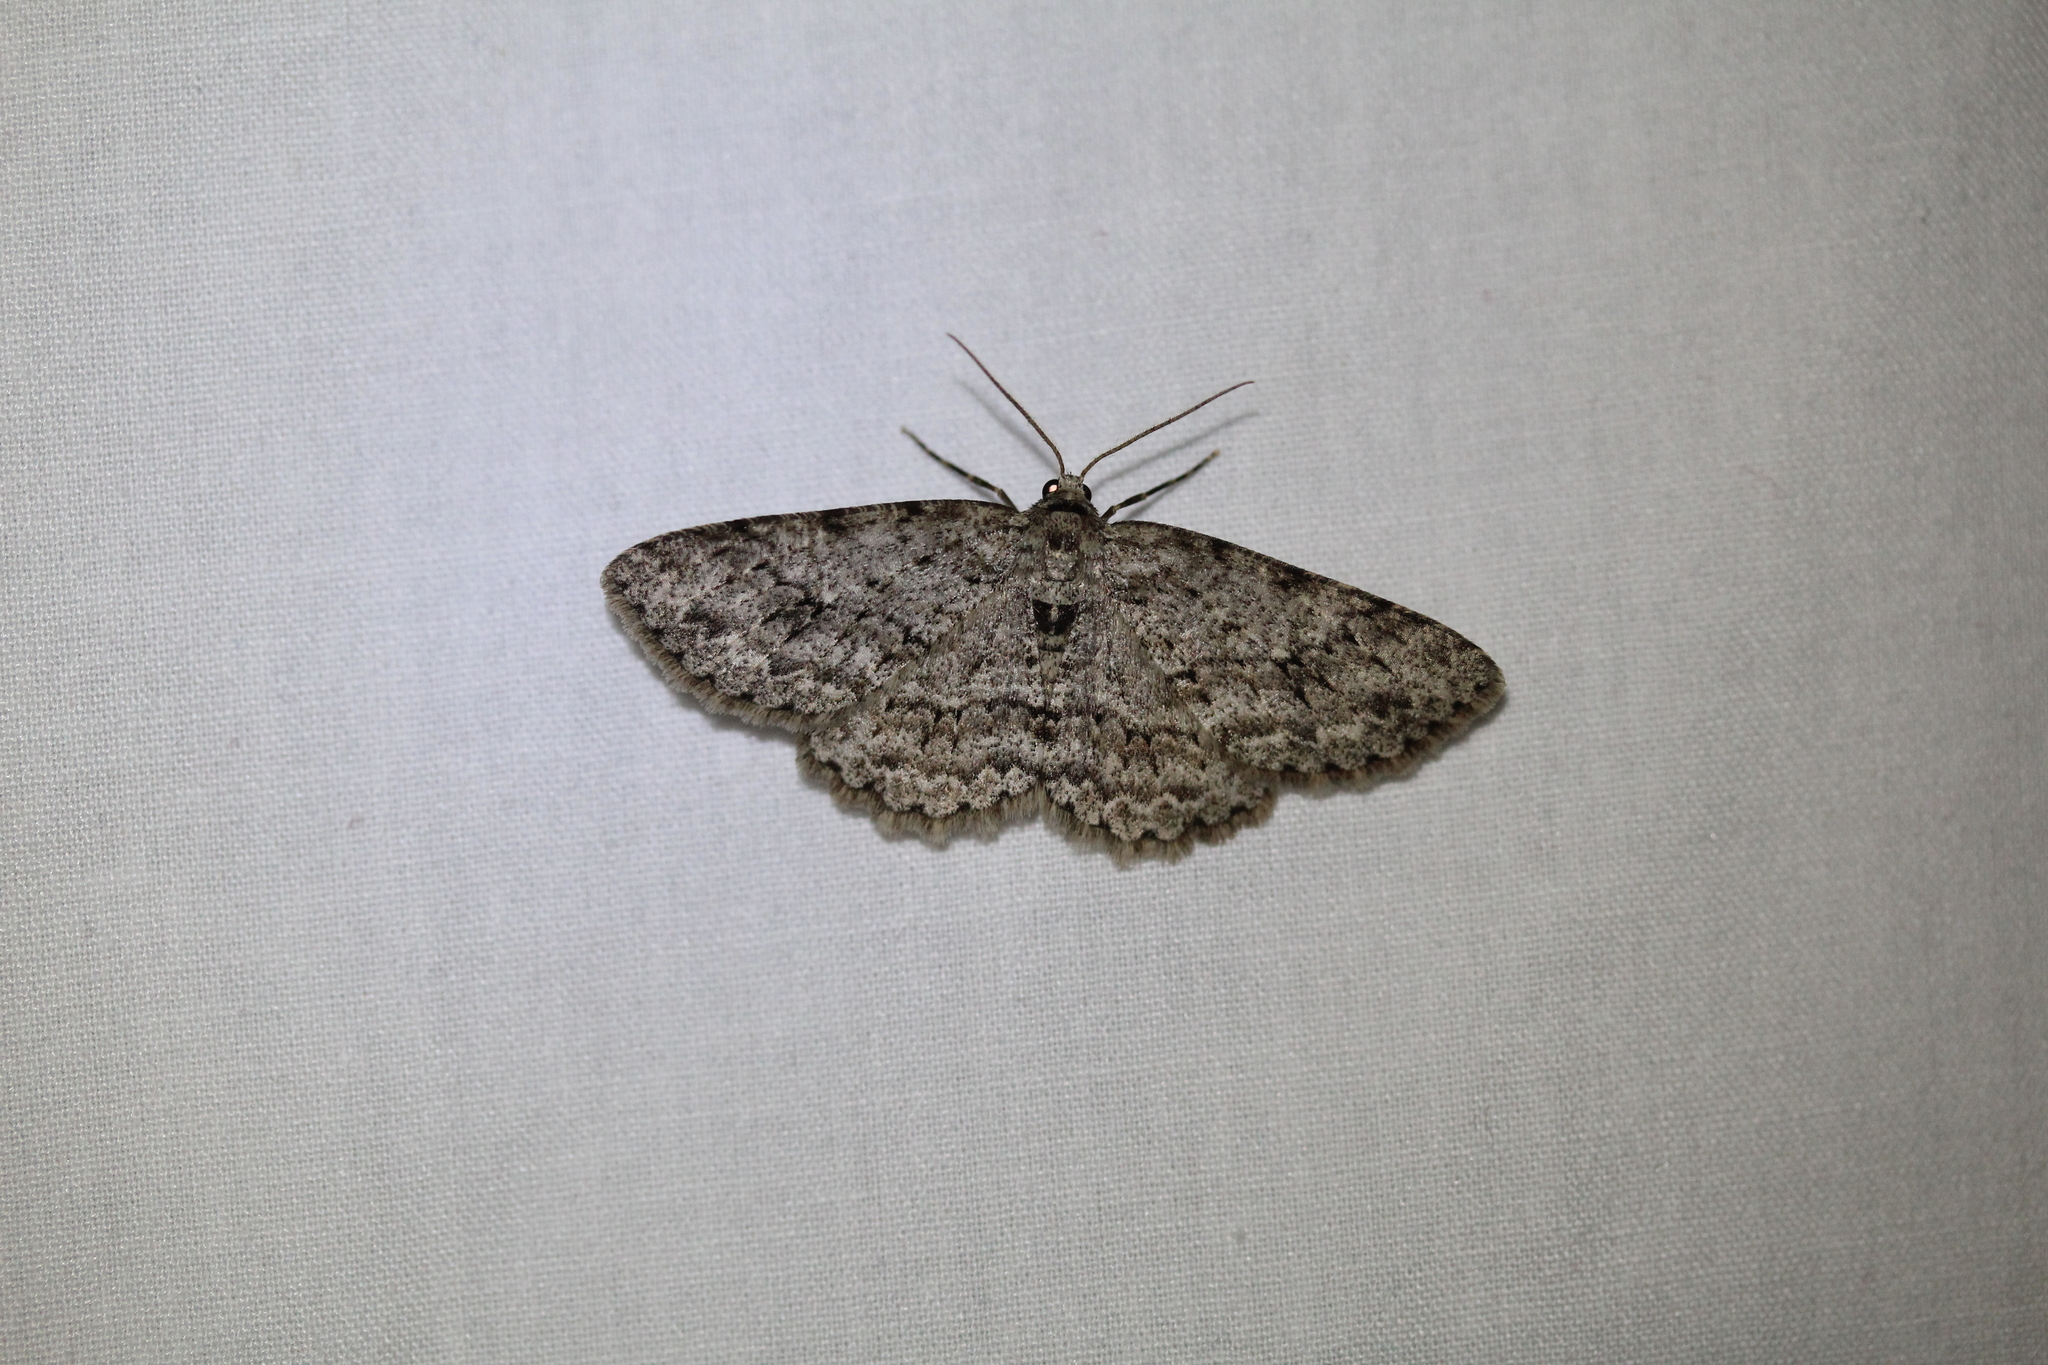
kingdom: Animalia
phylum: Arthropoda
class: Insecta
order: Lepidoptera
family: Geometridae
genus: Ectropis
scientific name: Ectropis crepuscularia
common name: Engrailed
